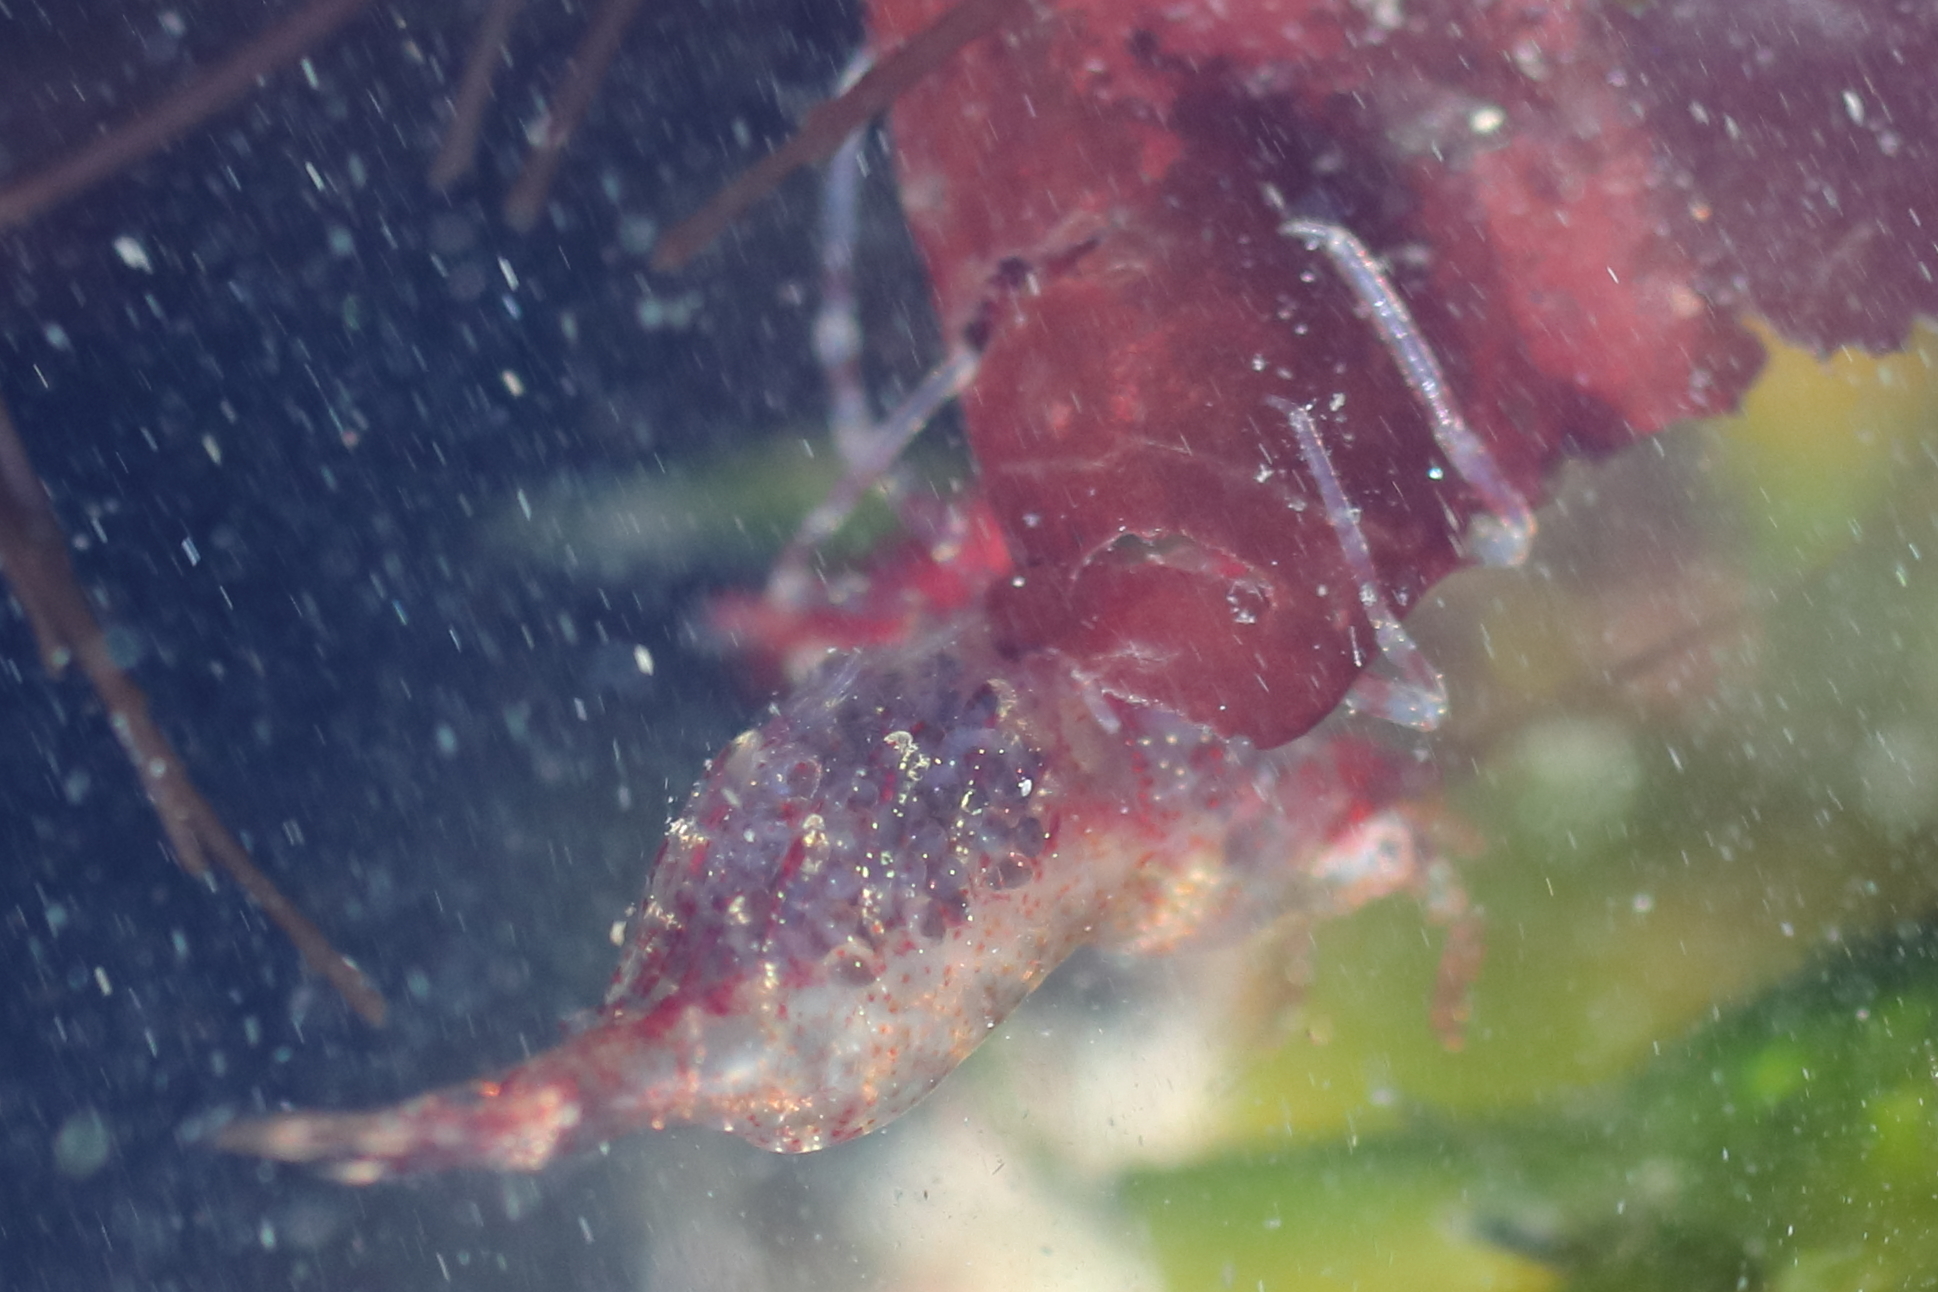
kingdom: Animalia
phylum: Arthropoda
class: Malacostraca
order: Decapoda
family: Thoridae
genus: Heptacarpus
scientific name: Heptacarpus tridens
